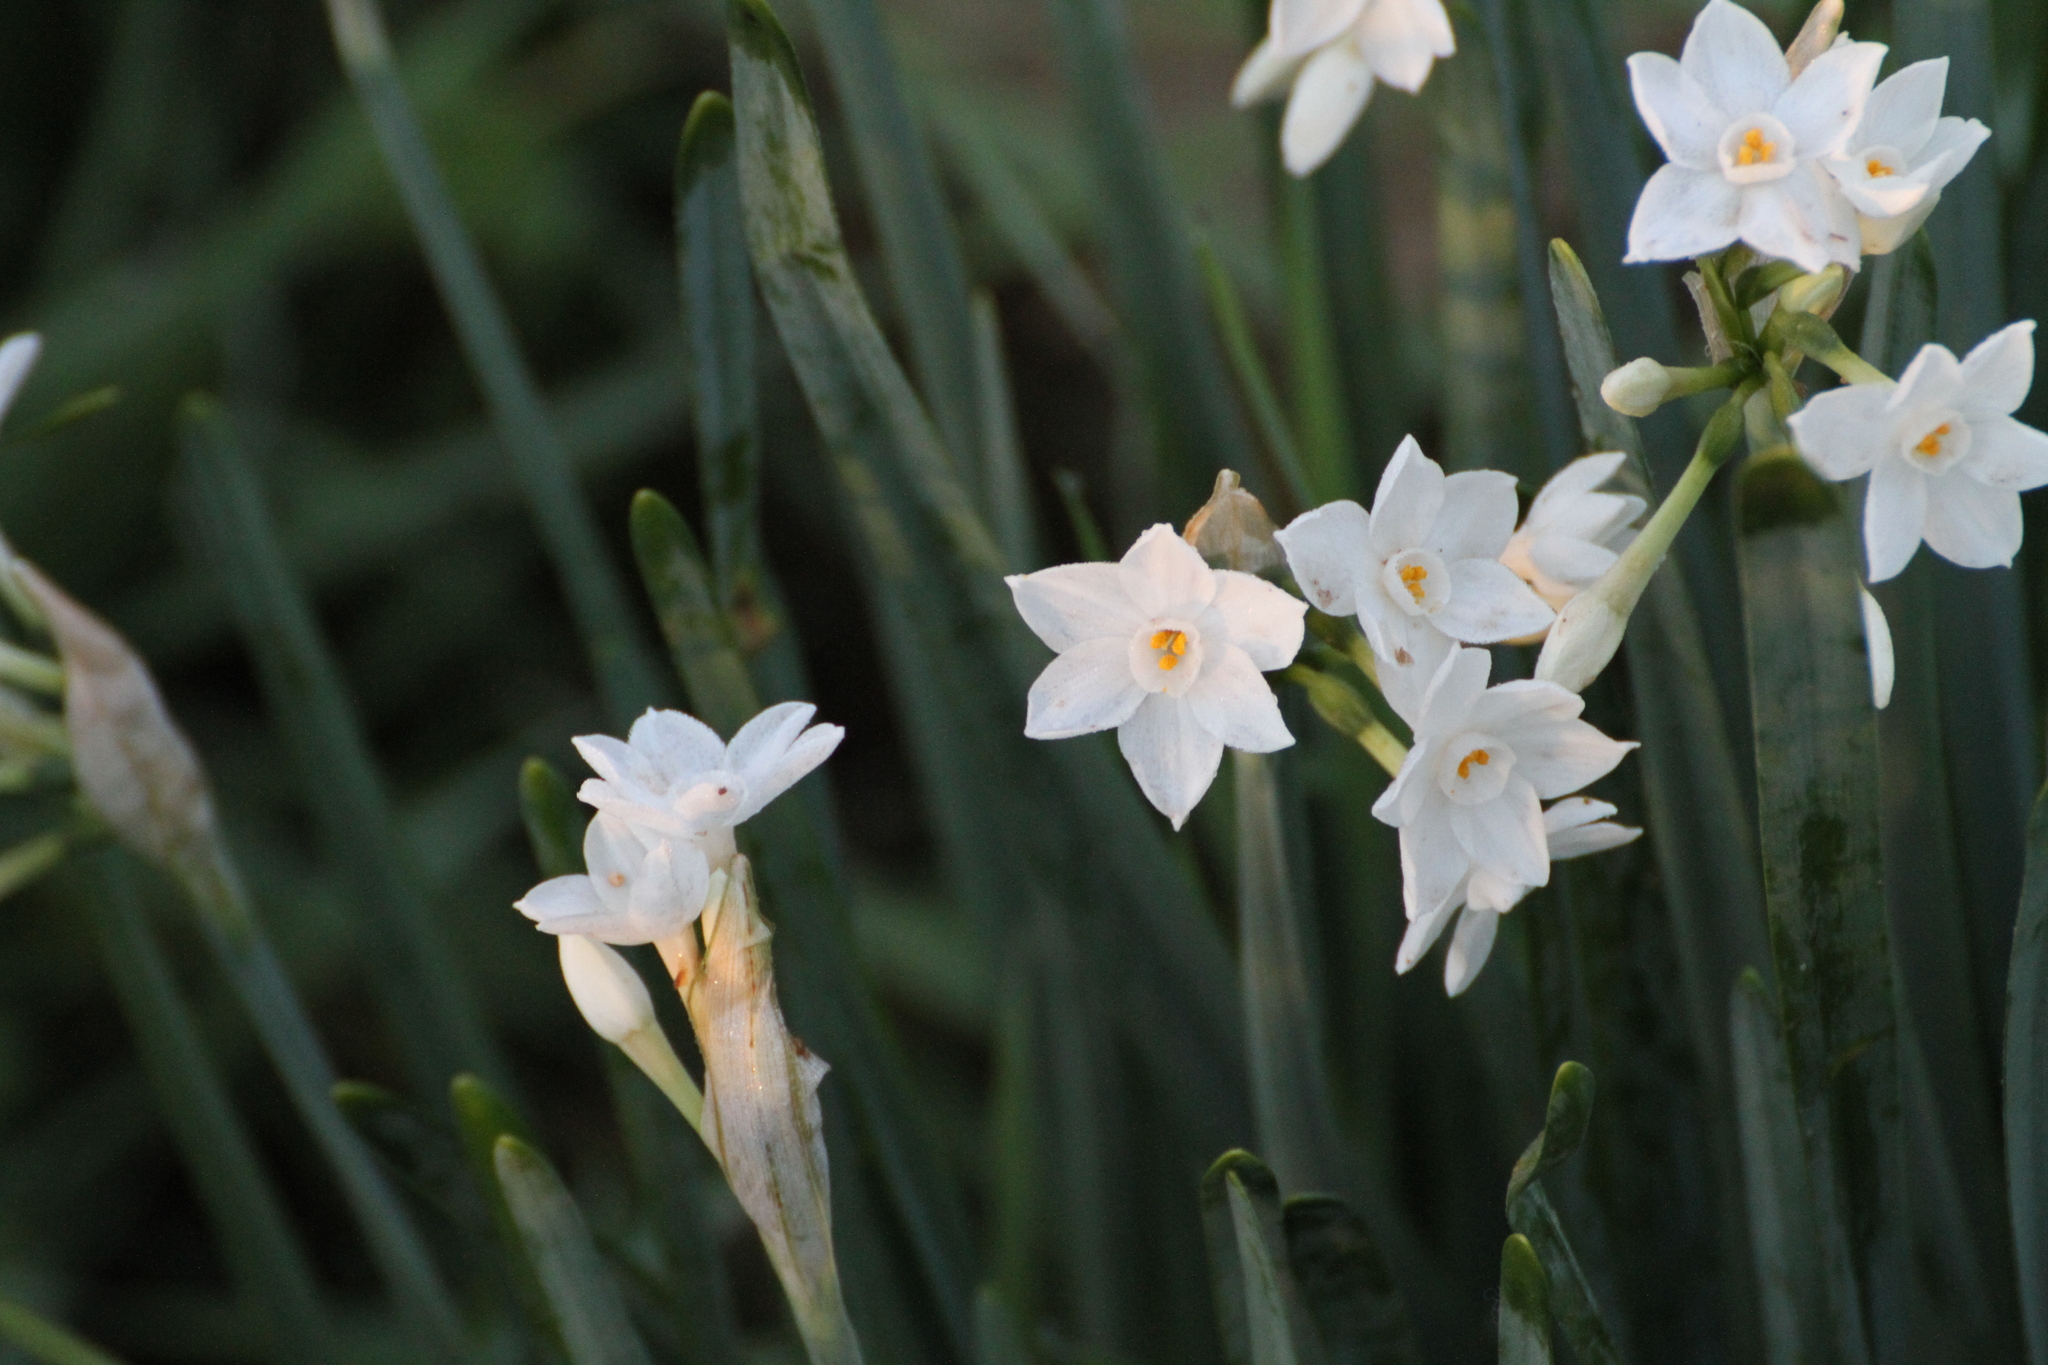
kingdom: Plantae
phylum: Tracheophyta
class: Liliopsida
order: Asparagales
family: Amaryllidaceae
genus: Narcissus
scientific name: Narcissus papyraceus
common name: Paper-white daffodil
